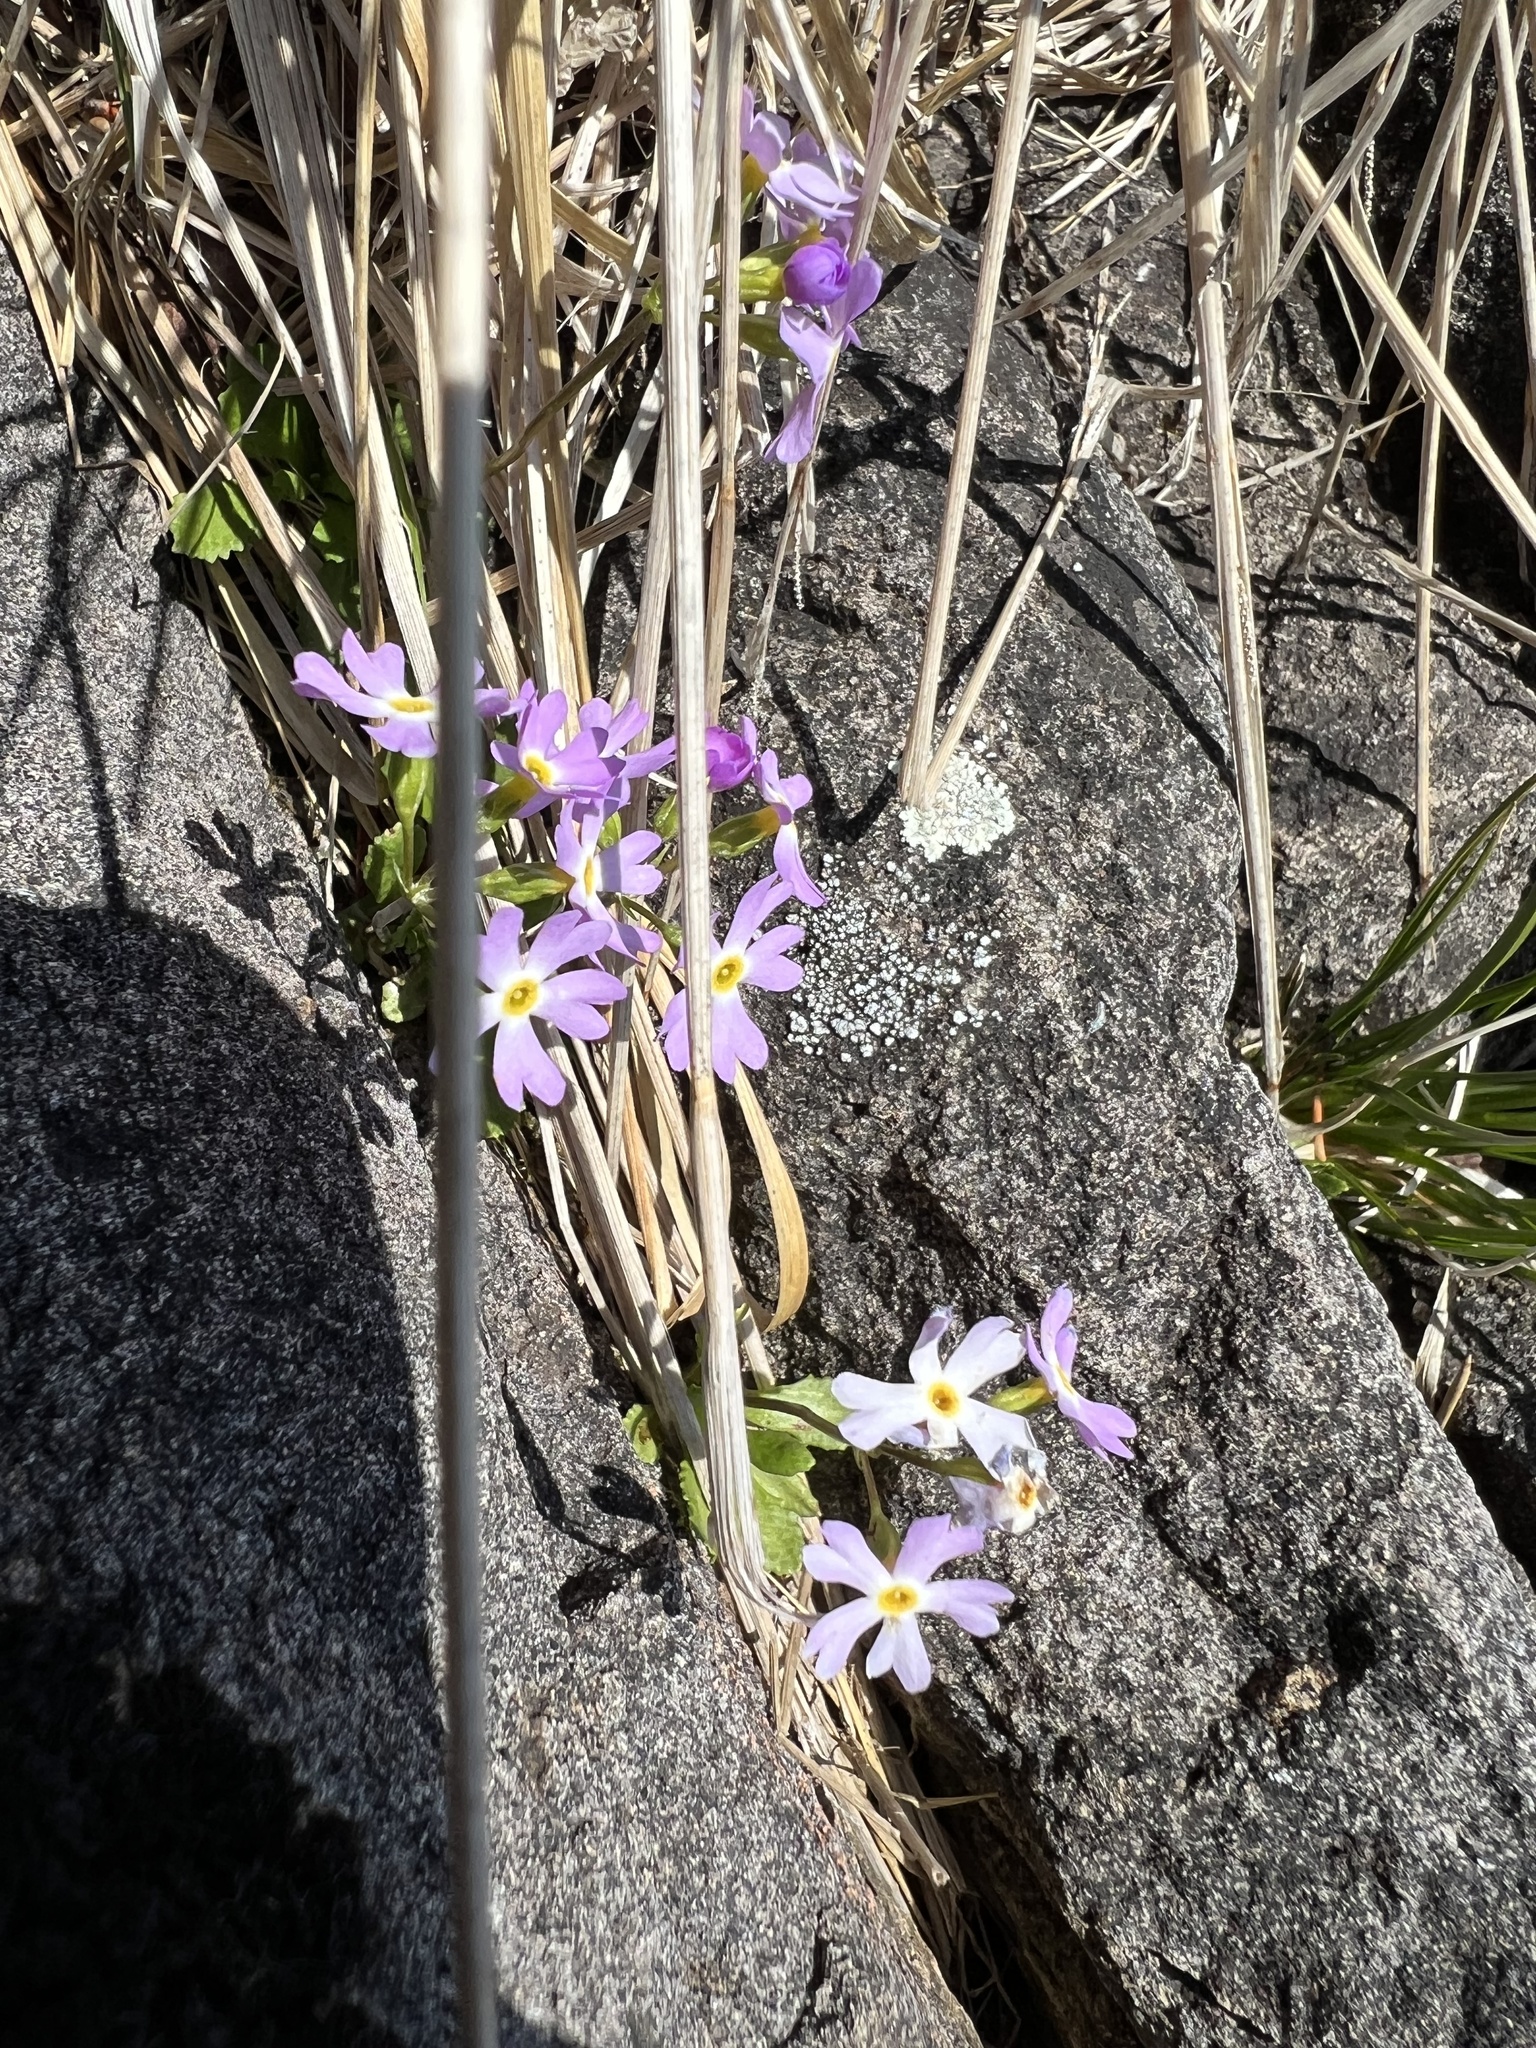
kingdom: Plantae
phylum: Tracheophyta
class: Magnoliopsida
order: Ericales
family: Primulaceae
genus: Primula
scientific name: Primula mistassinica
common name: Bird's-eye primrose
